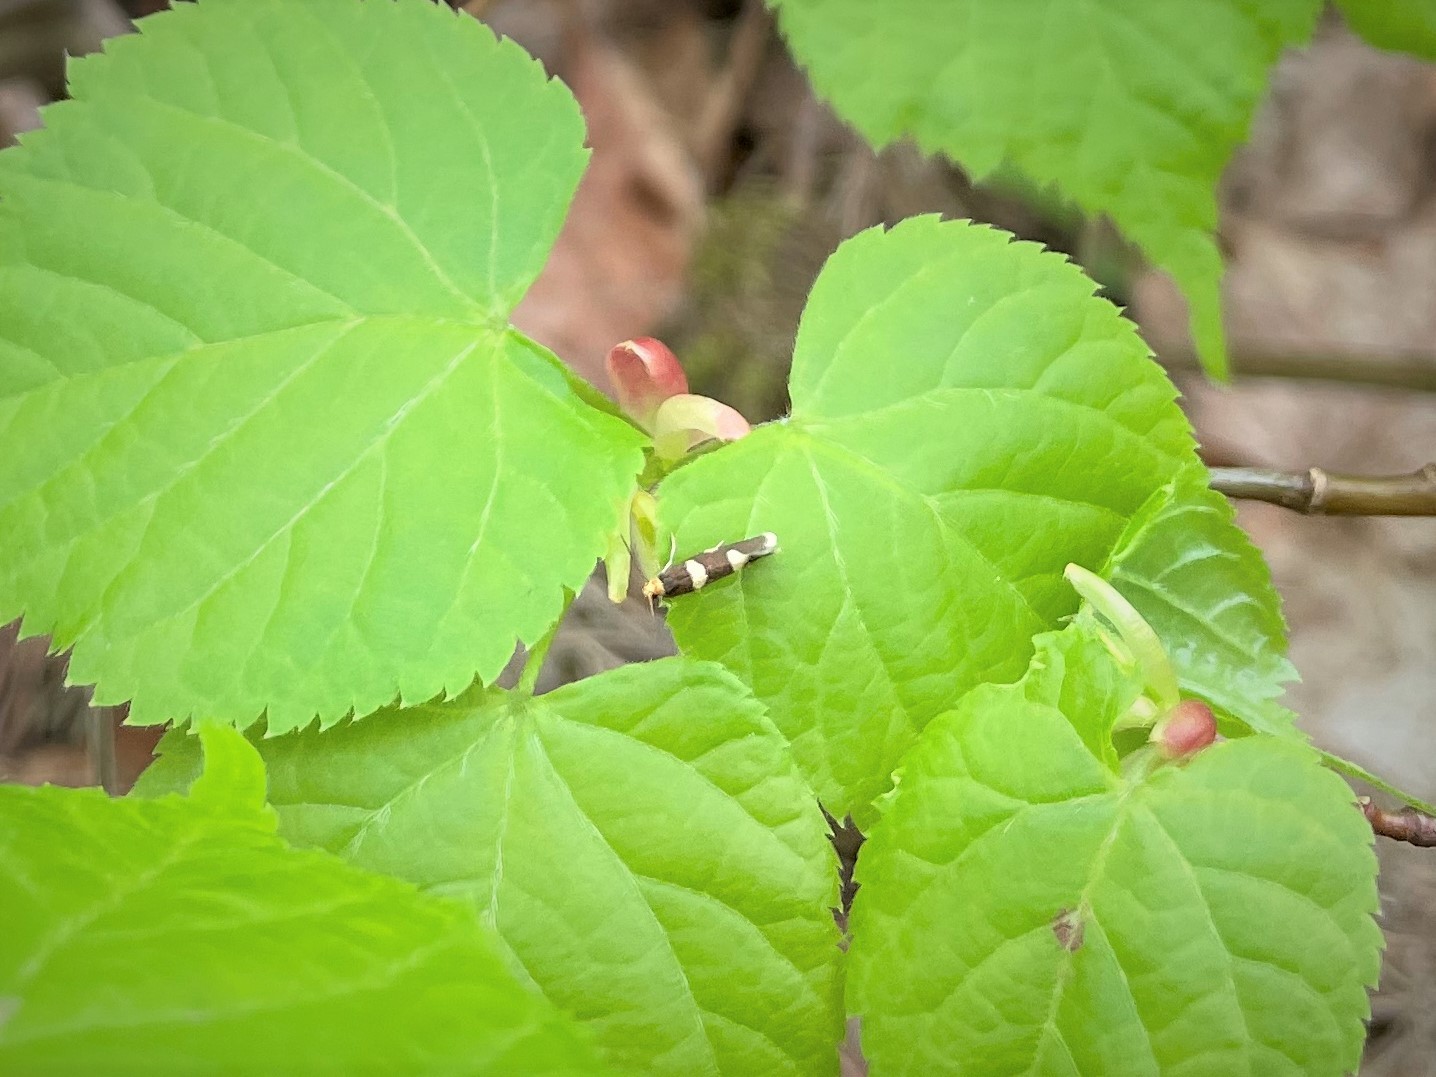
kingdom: Animalia
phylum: Arthropoda
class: Insecta
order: Lepidoptera
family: Incurvariidae
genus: Alloclemensia
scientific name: Alloclemensia mesospilella
